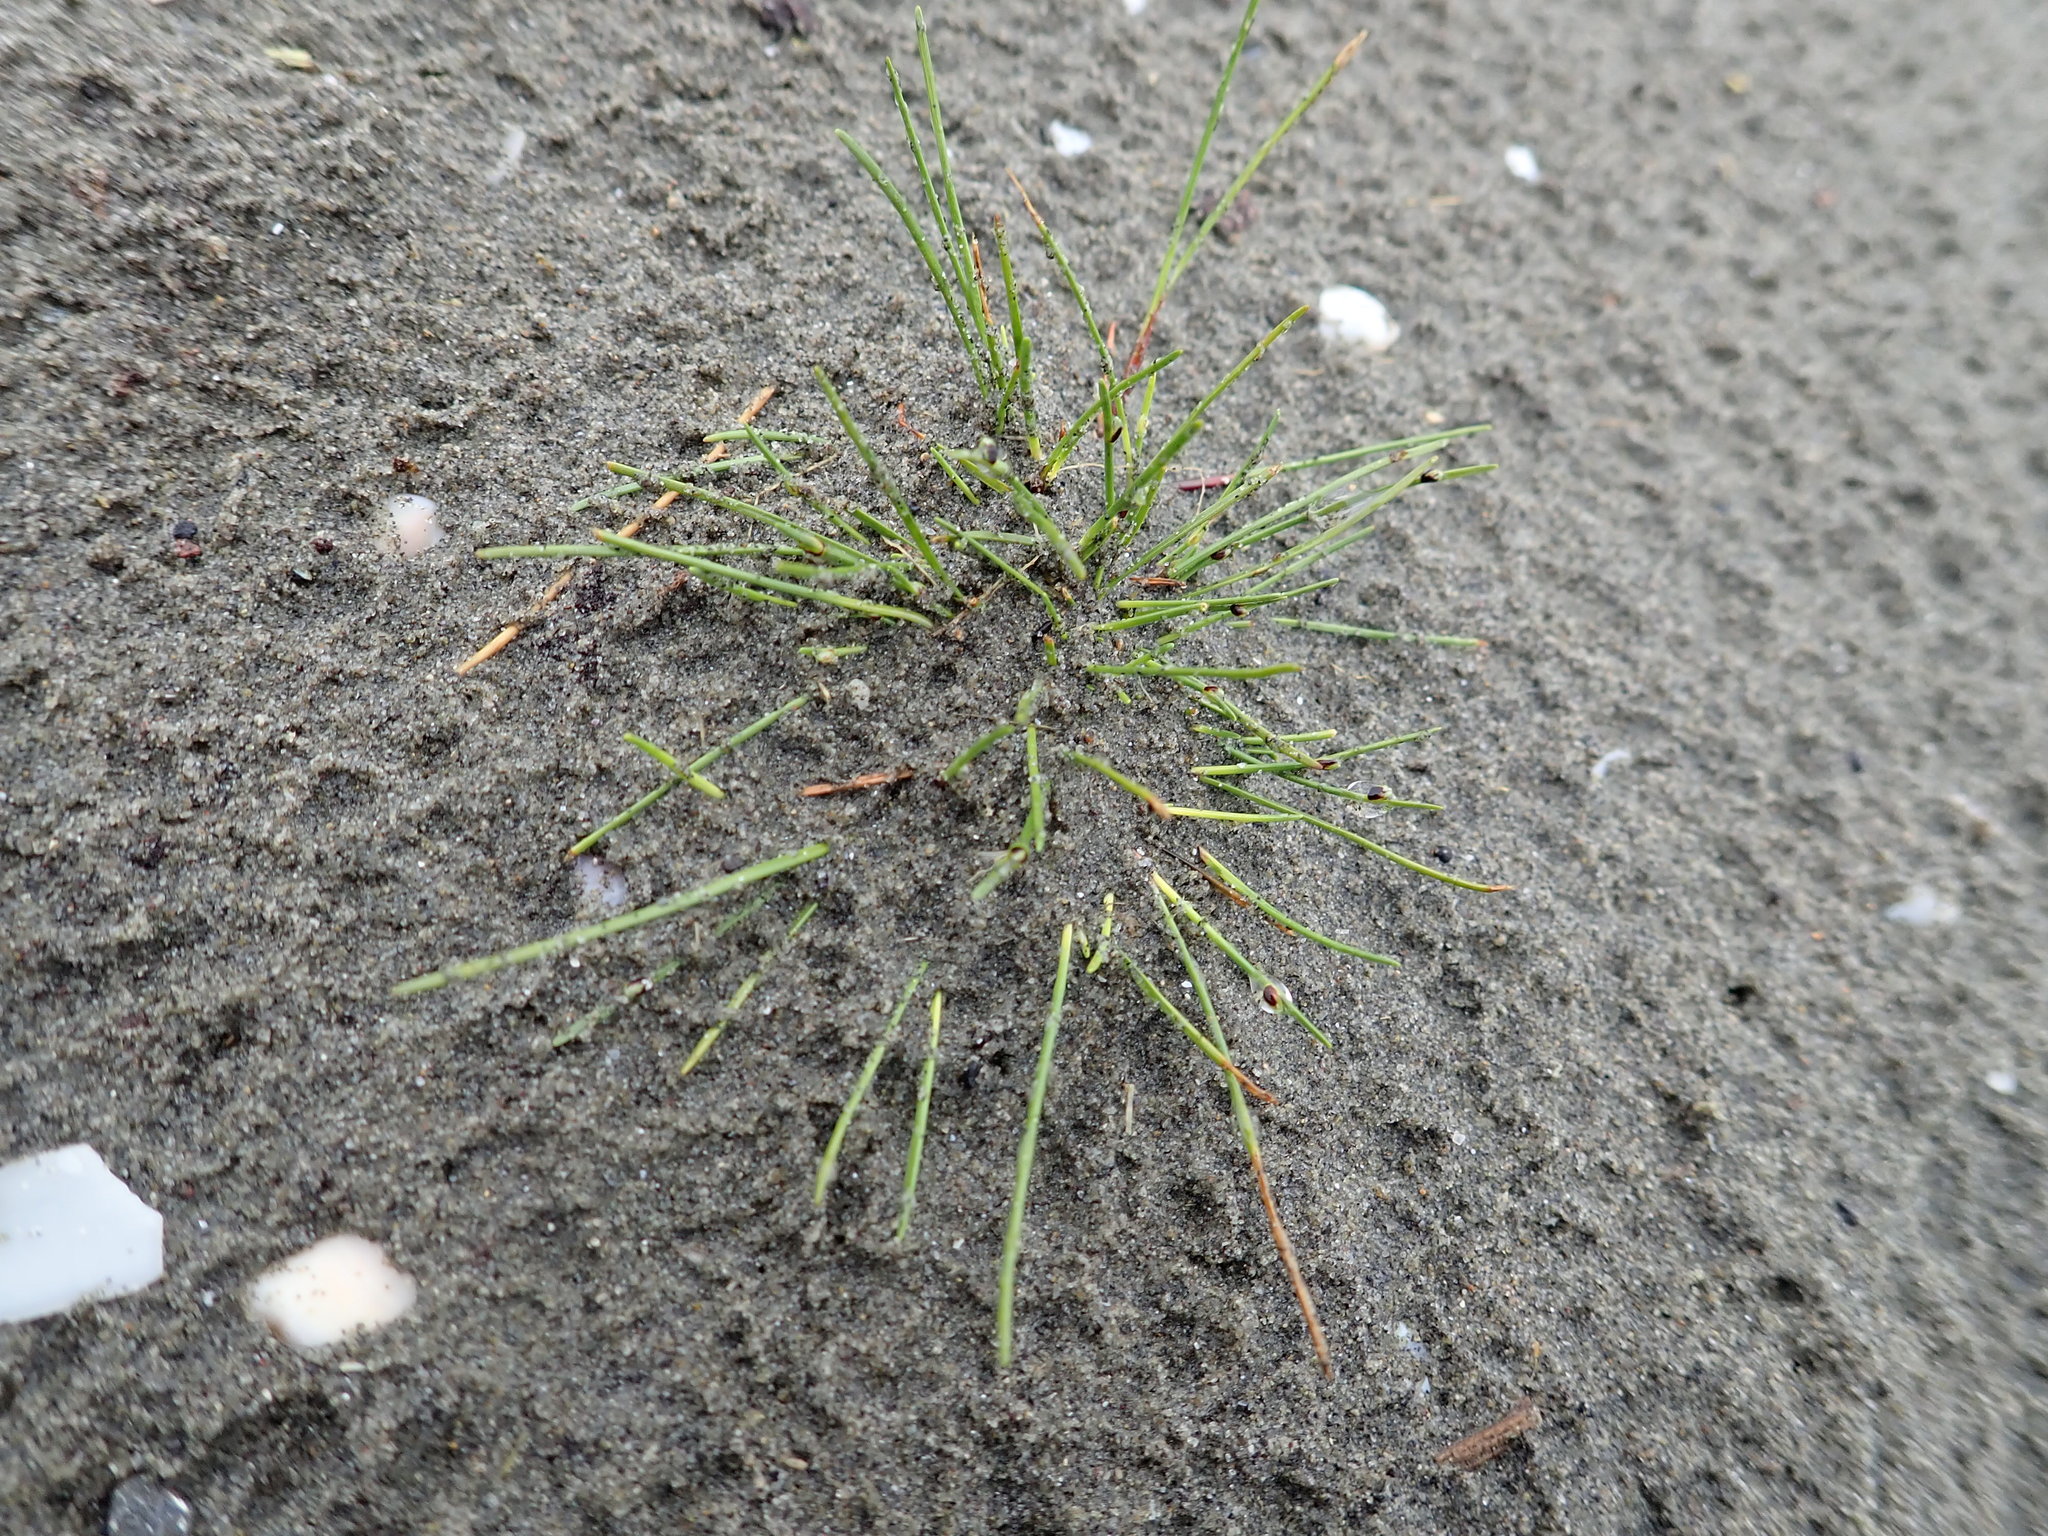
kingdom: Plantae
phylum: Tracheophyta
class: Liliopsida
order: Poales
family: Cyperaceae
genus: Isolepis
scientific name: Isolepis cernua
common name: Slender club-rush
